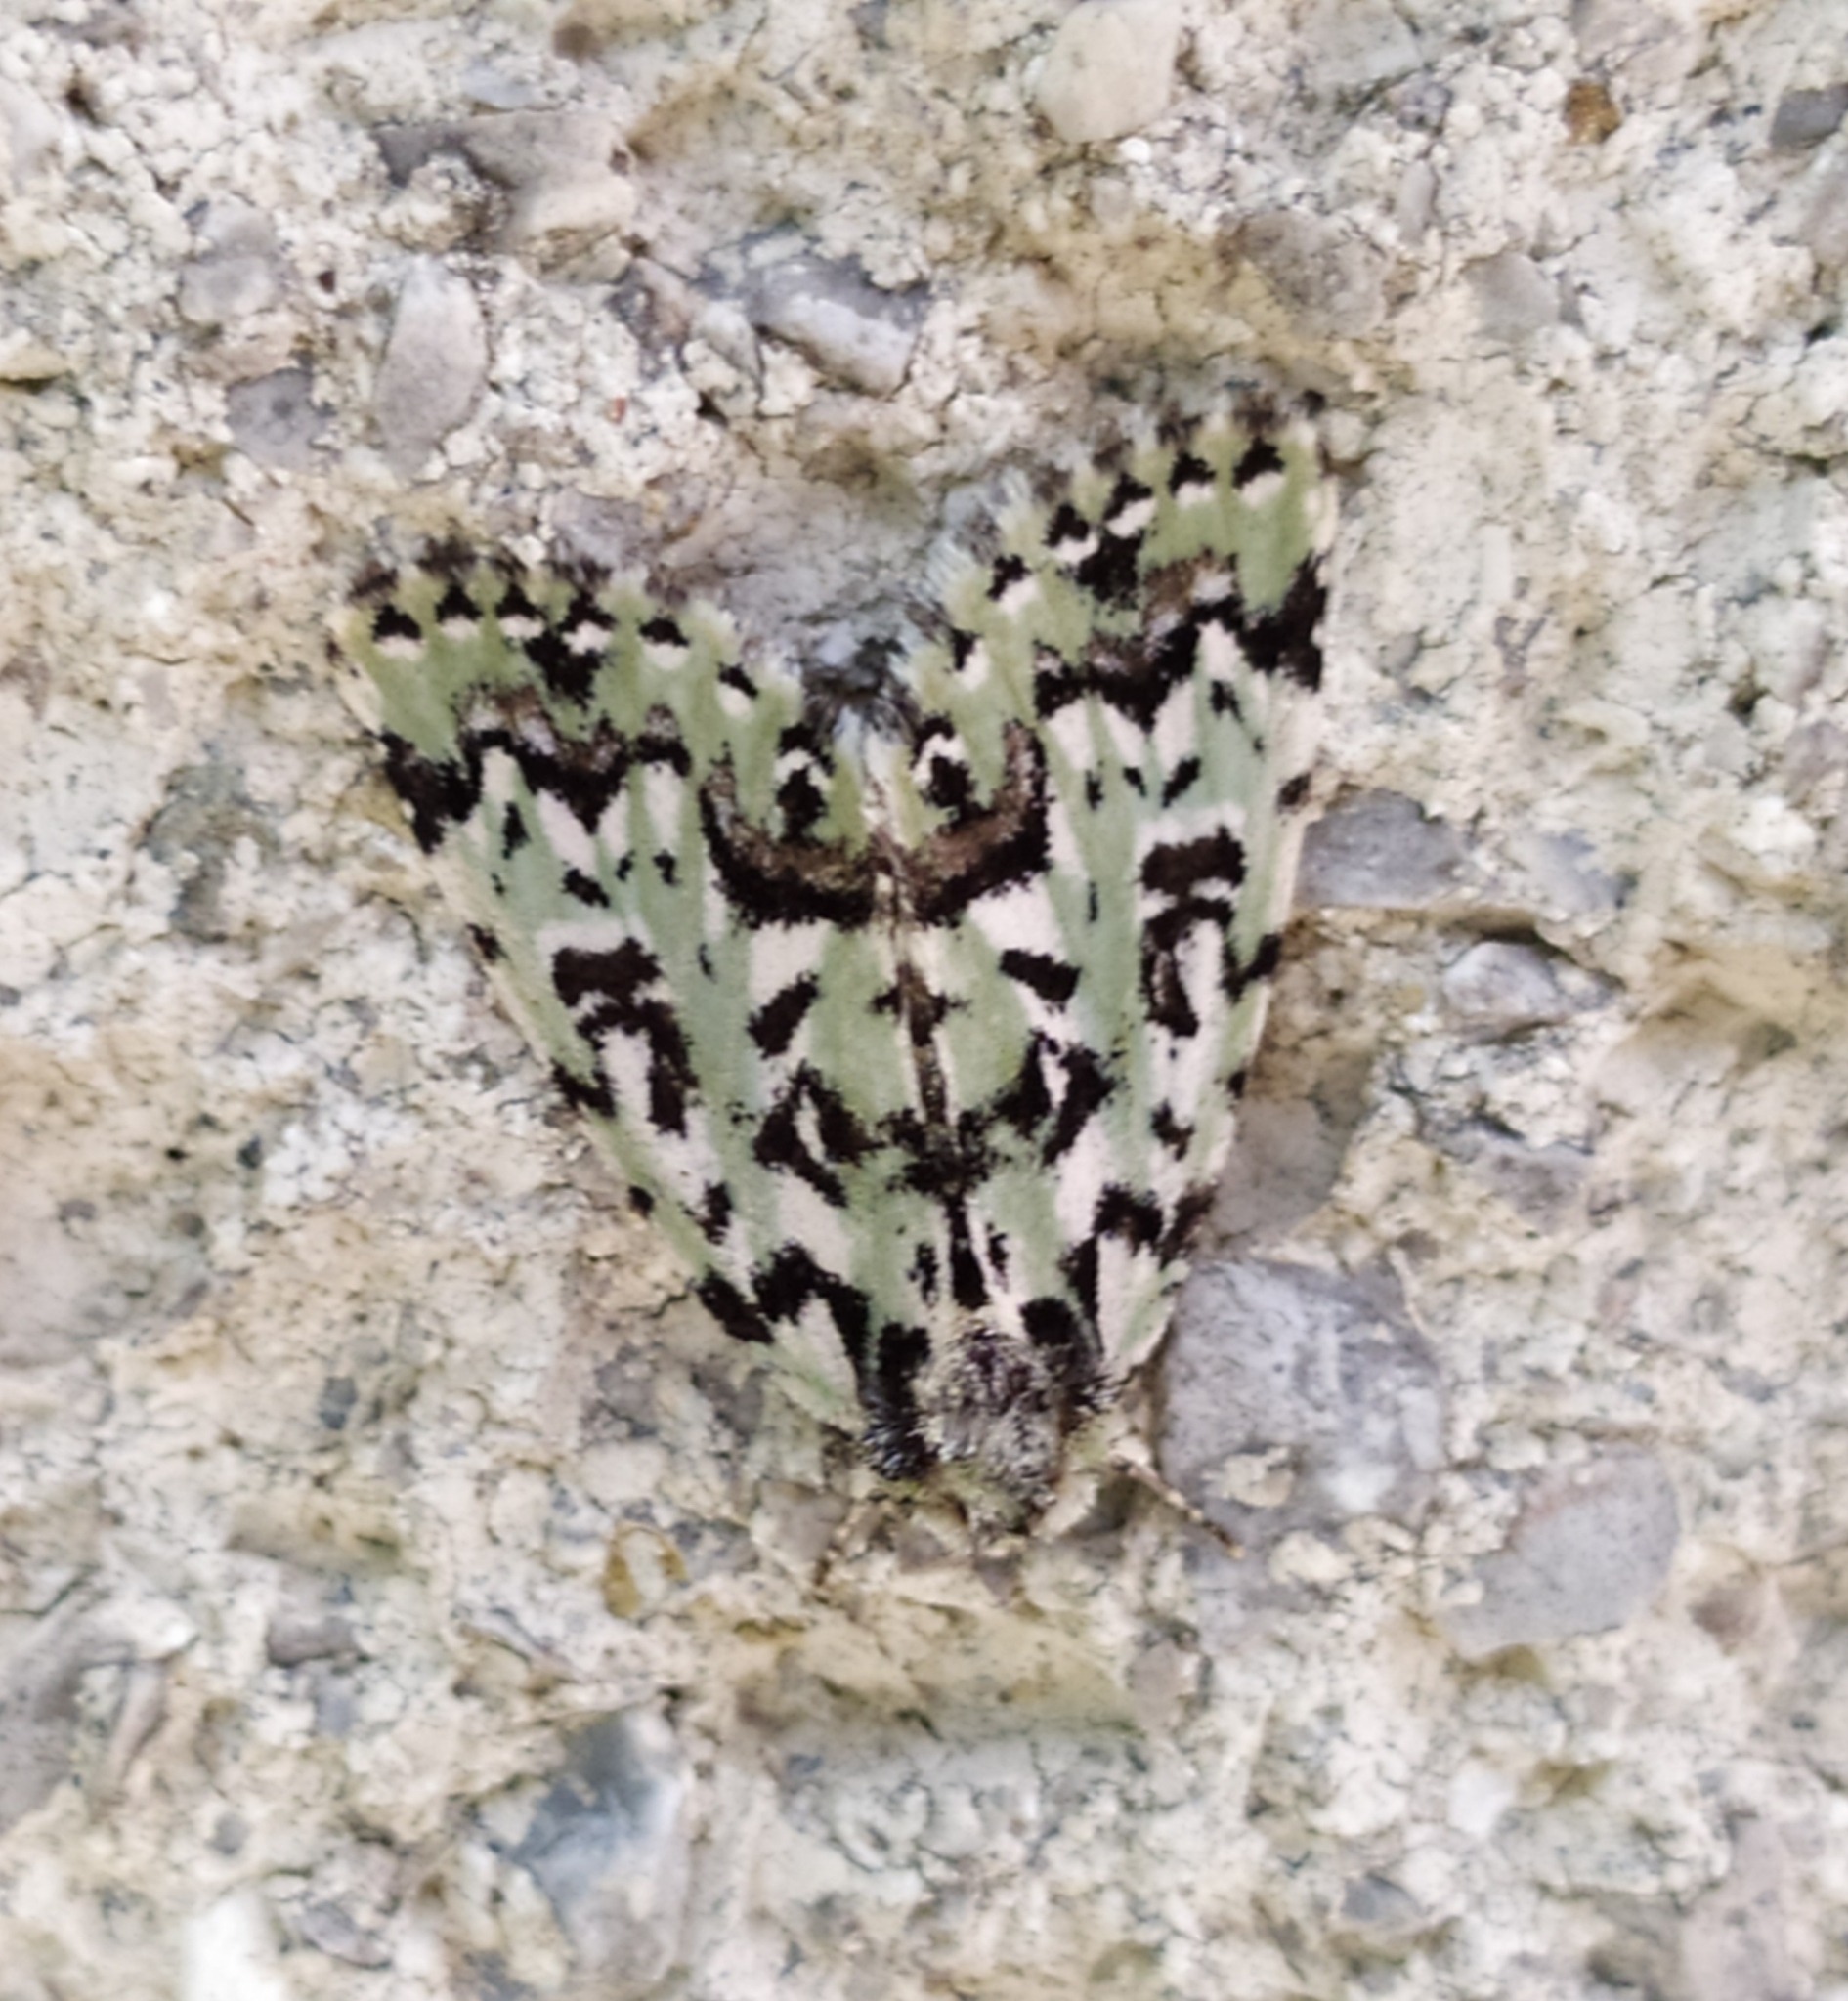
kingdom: Animalia
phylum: Arthropoda
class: Insecta
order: Lepidoptera
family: Noctuidae
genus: Moma
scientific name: Moma alpium
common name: Scarce merveille du jour
